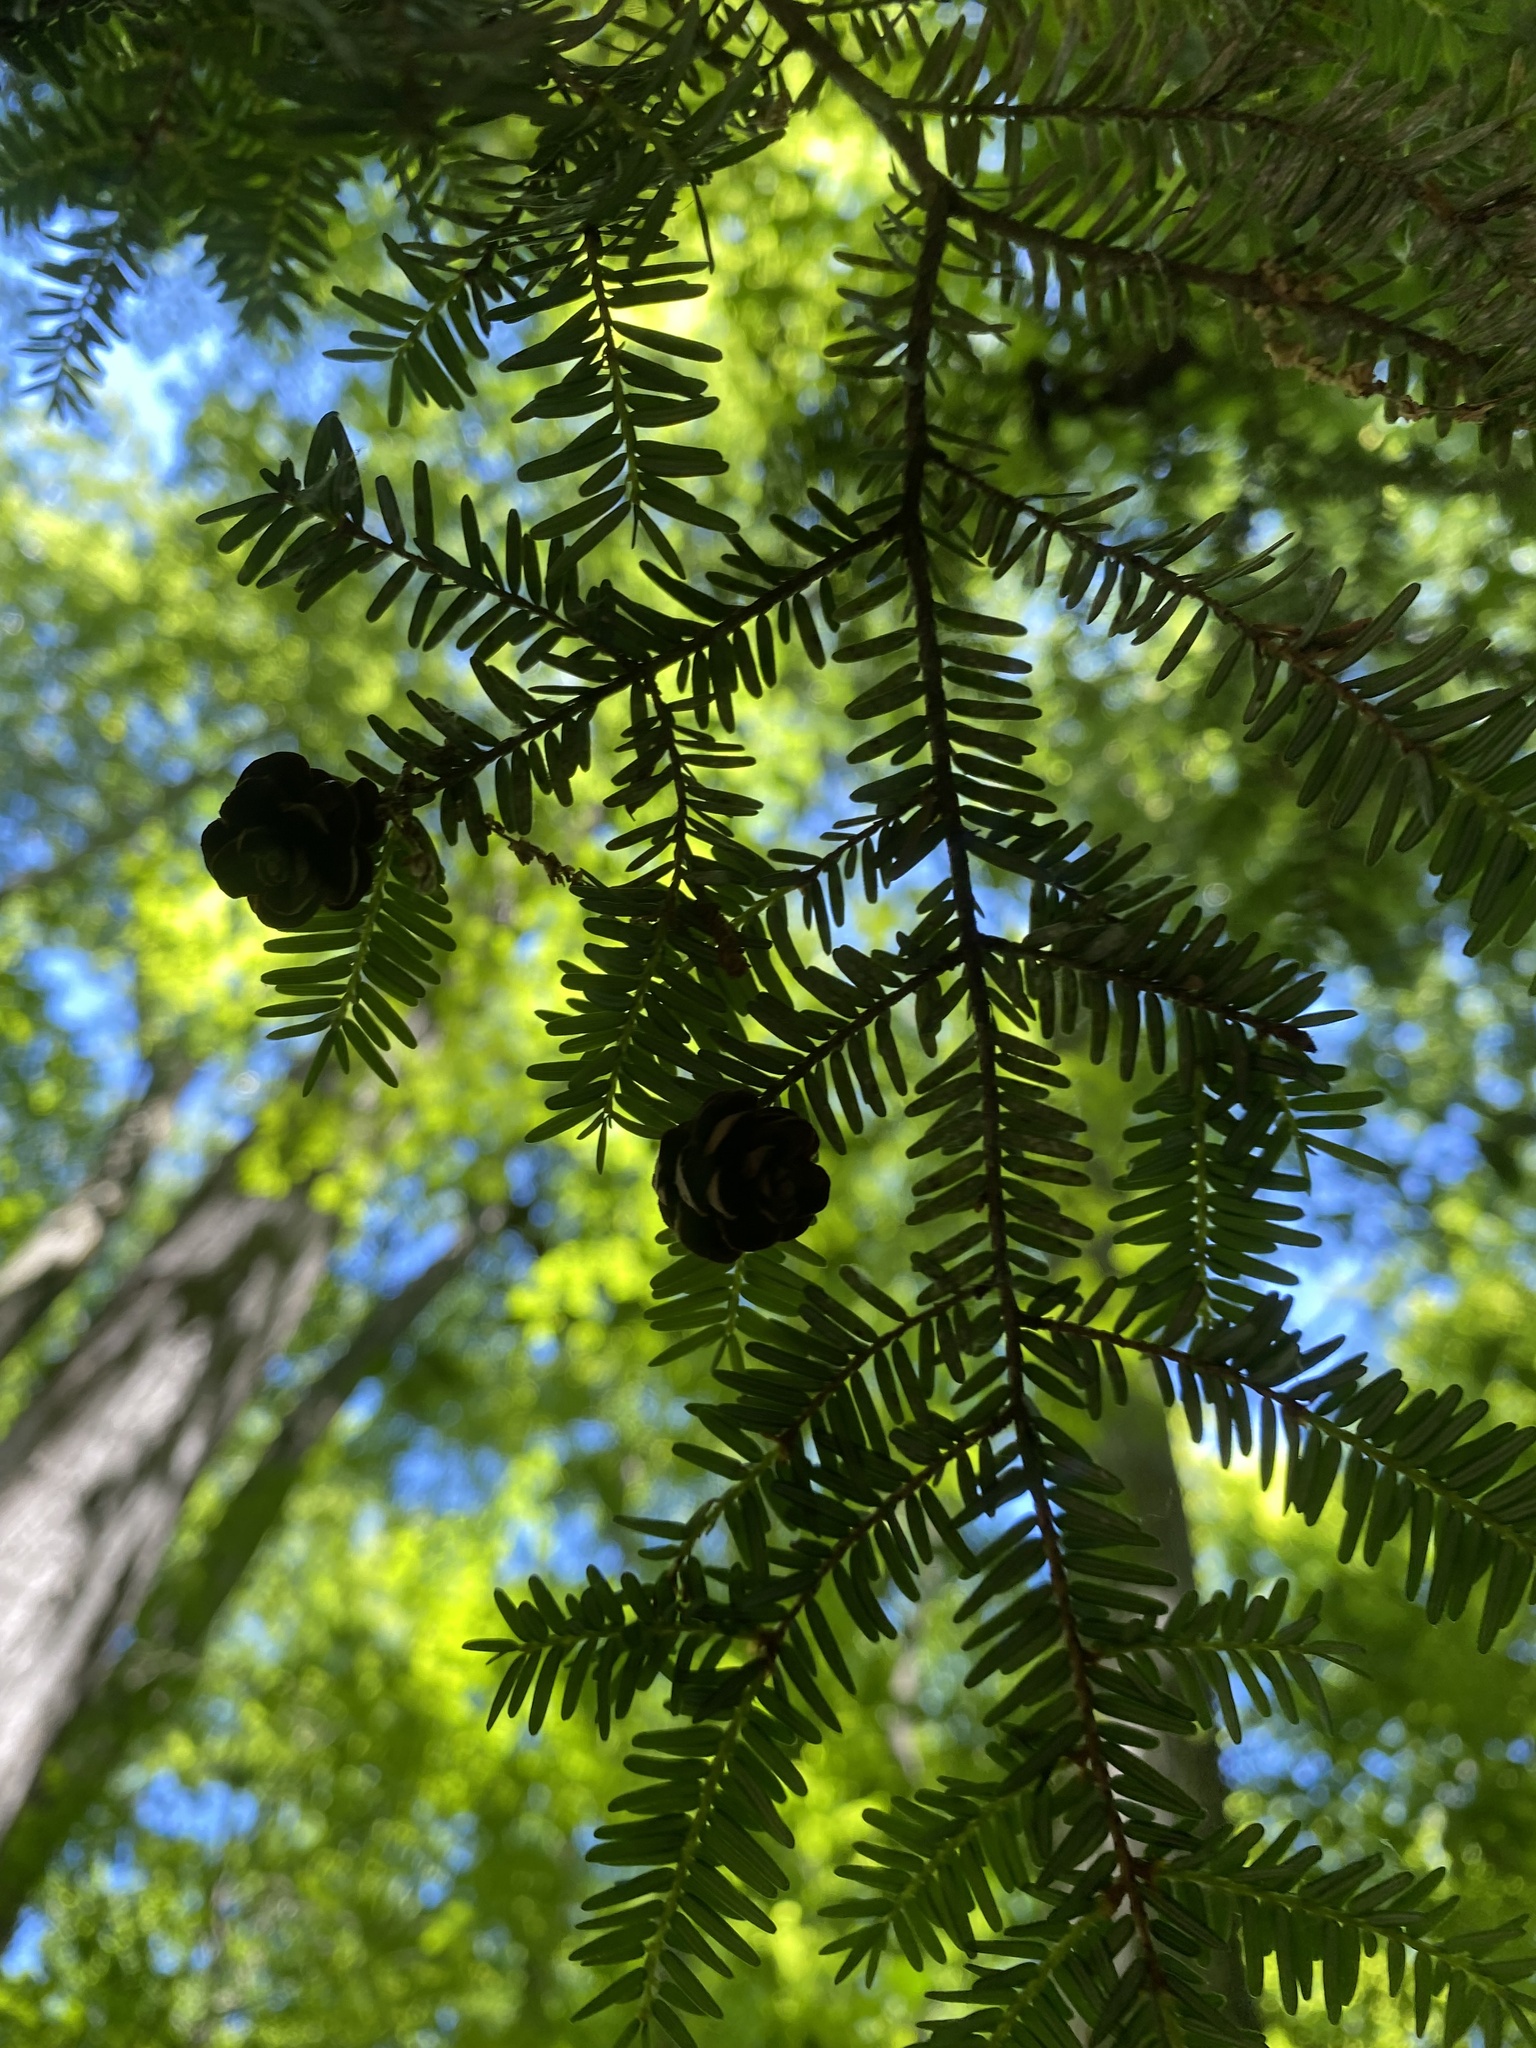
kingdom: Plantae
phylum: Tracheophyta
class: Pinopsida
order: Pinales
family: Pinaceae
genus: Tsuga
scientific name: Tsuga canadensis
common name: Eastern hemlock
